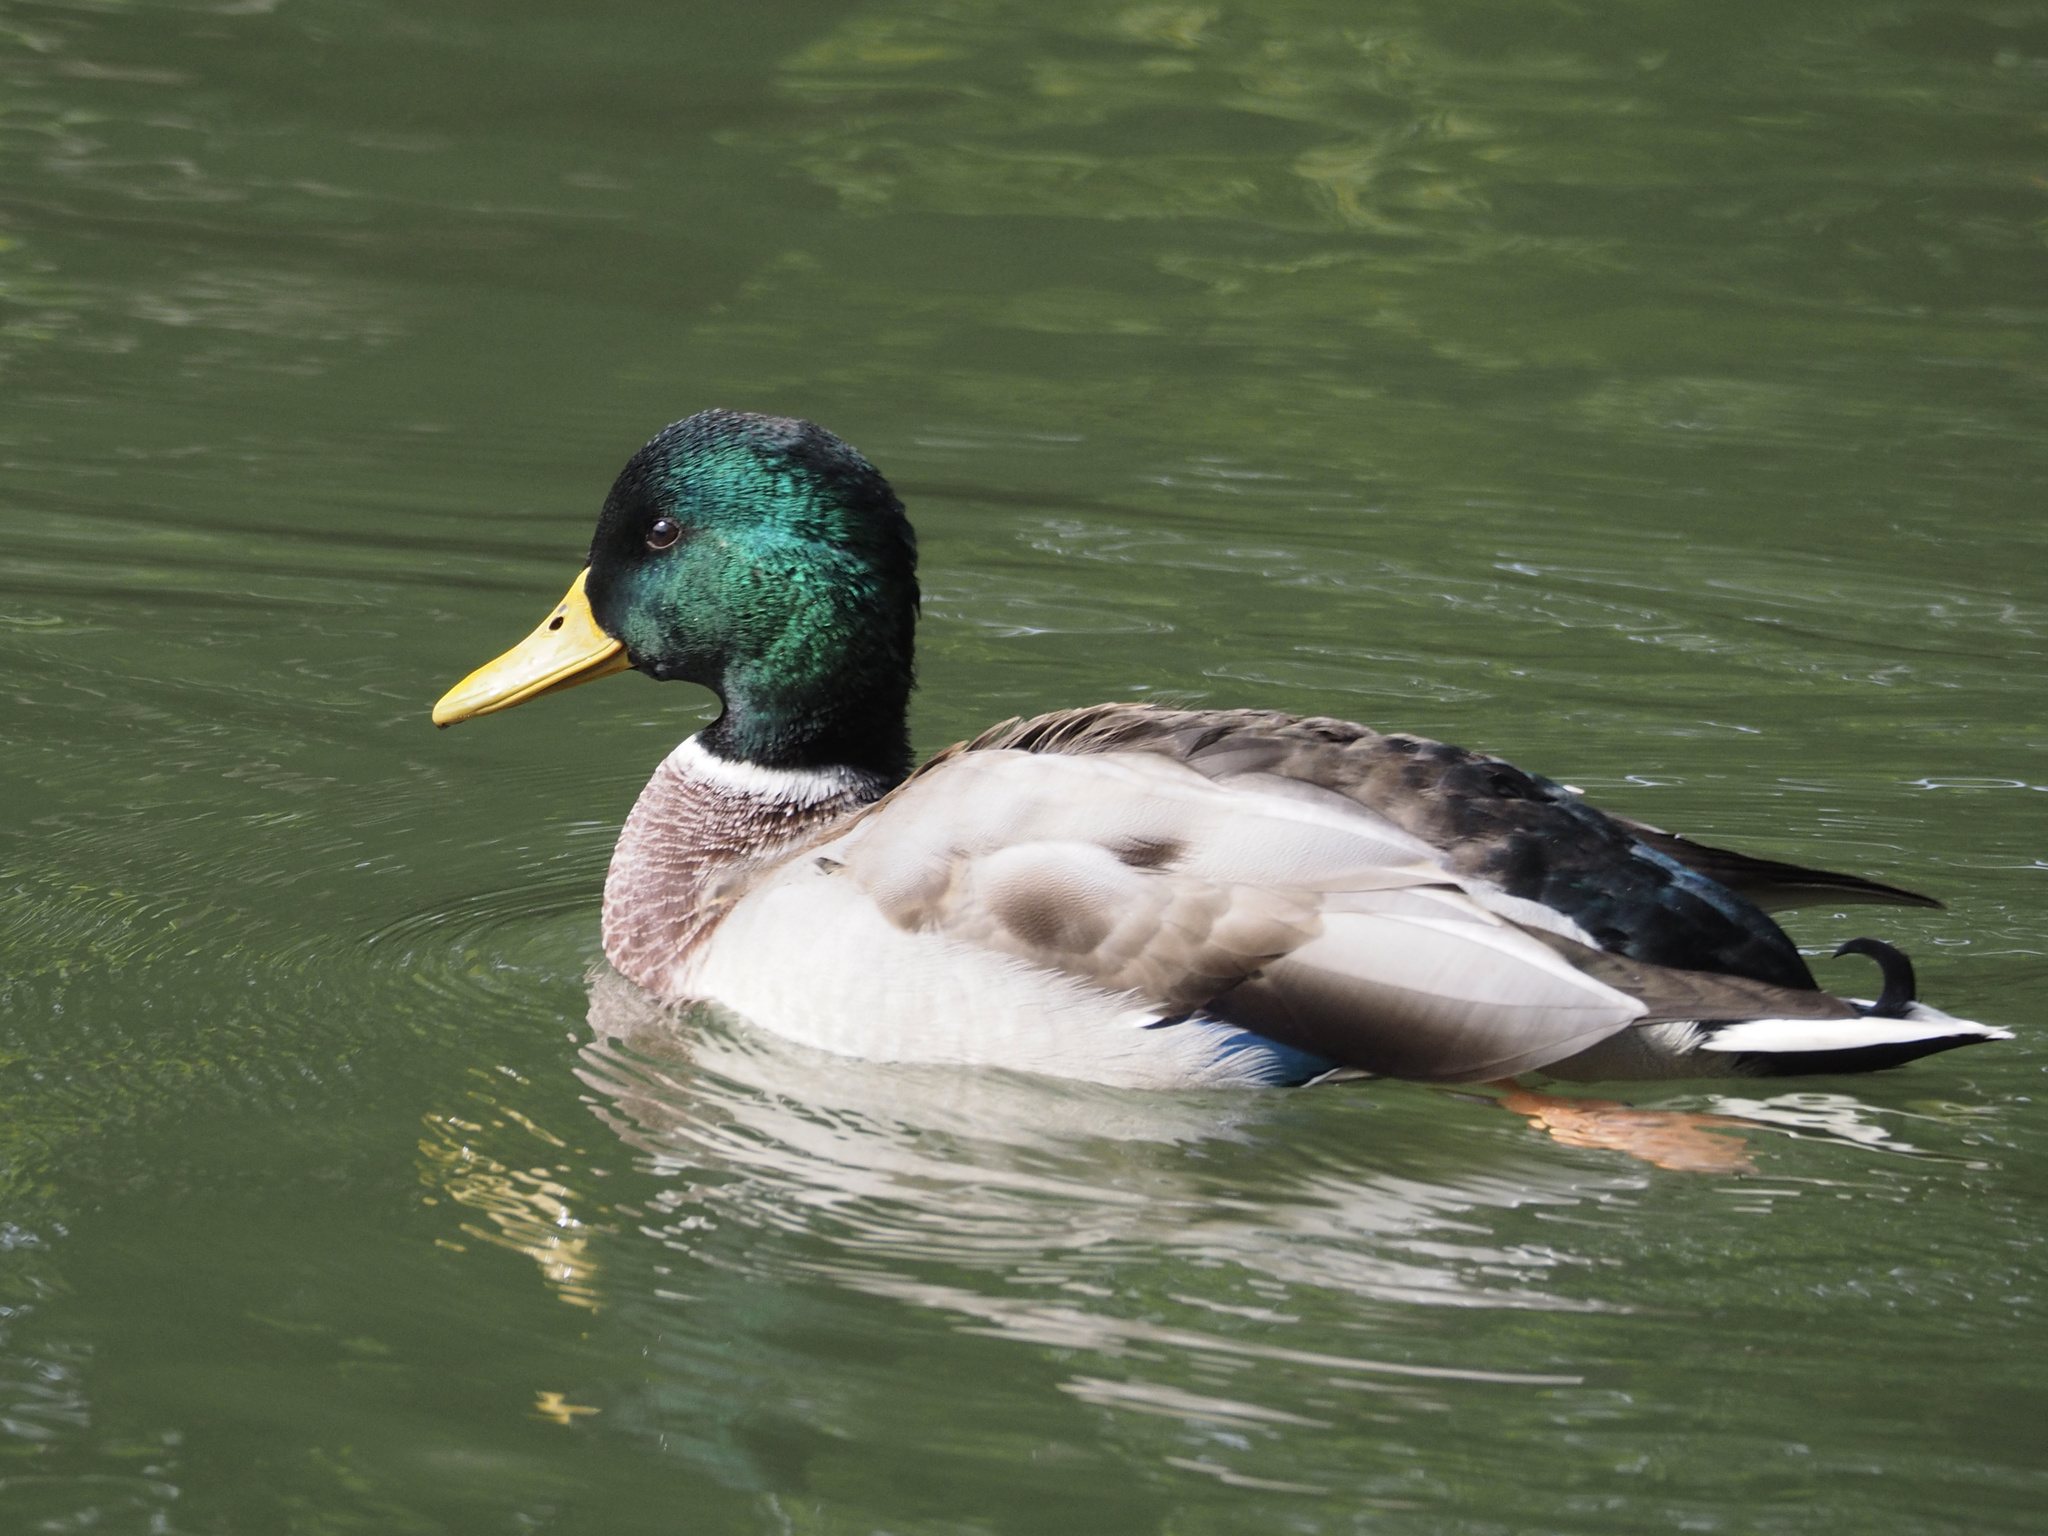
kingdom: Animalia
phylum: Chordata
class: Aves
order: Anseriformes
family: Anatidae
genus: Anas
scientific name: Anas platyrhynchos
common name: Mallard
